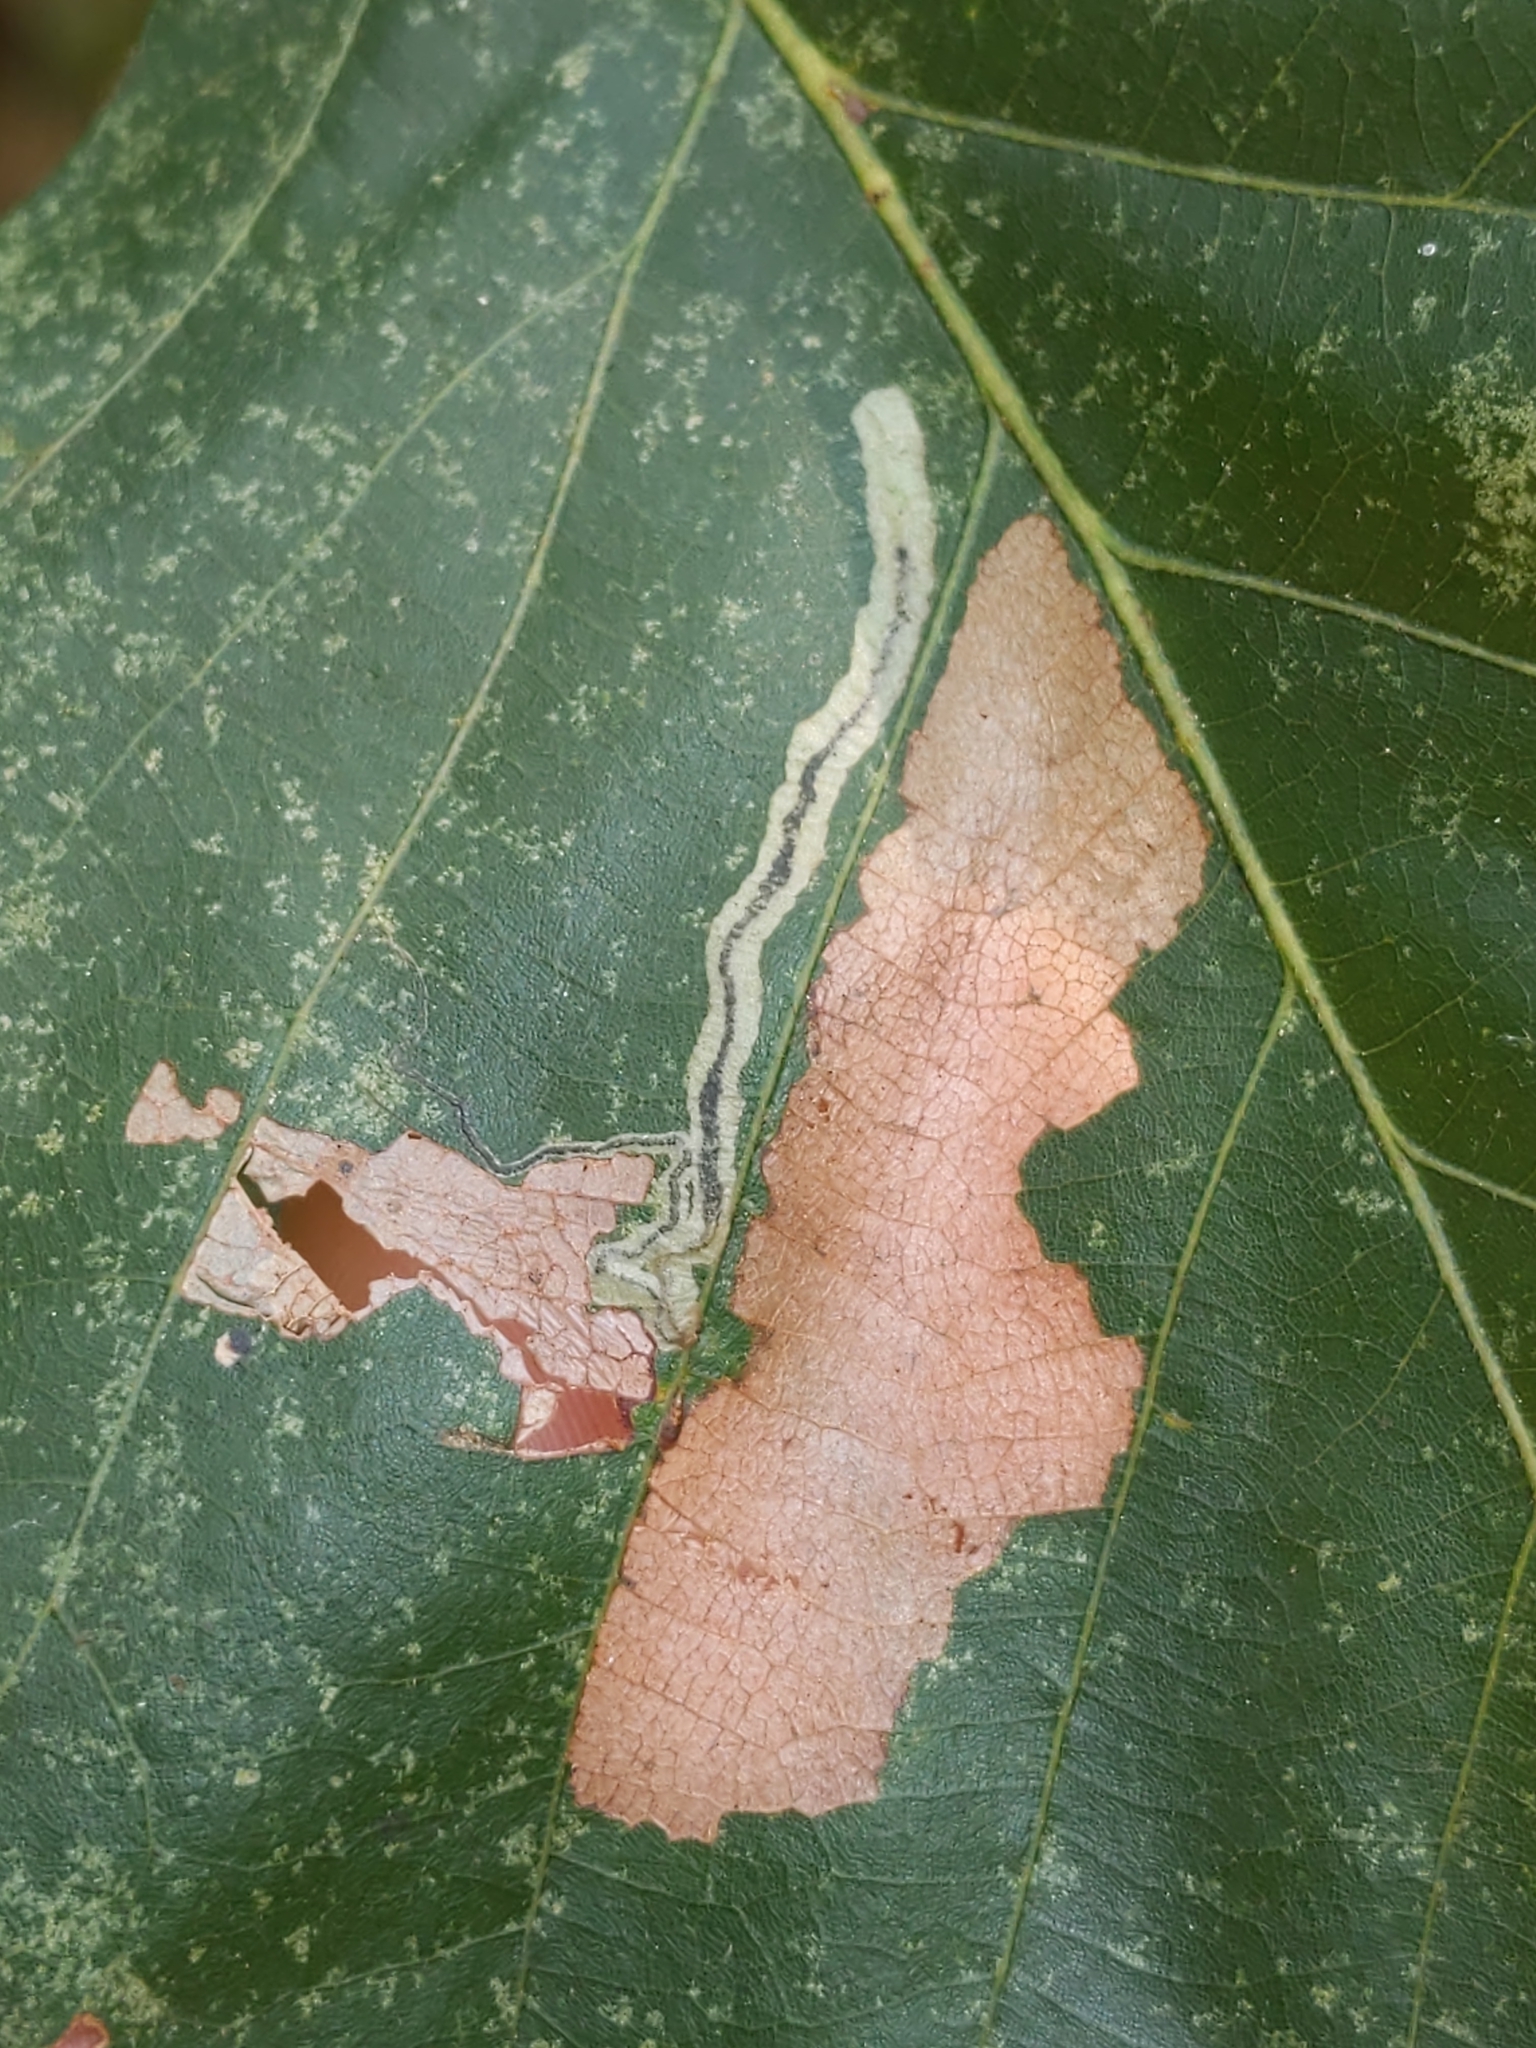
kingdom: Animalia
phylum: Arthropoda
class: Insecta
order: Lepidoptera
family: Nepticulidae
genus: Stigmella
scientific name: Stigmella
